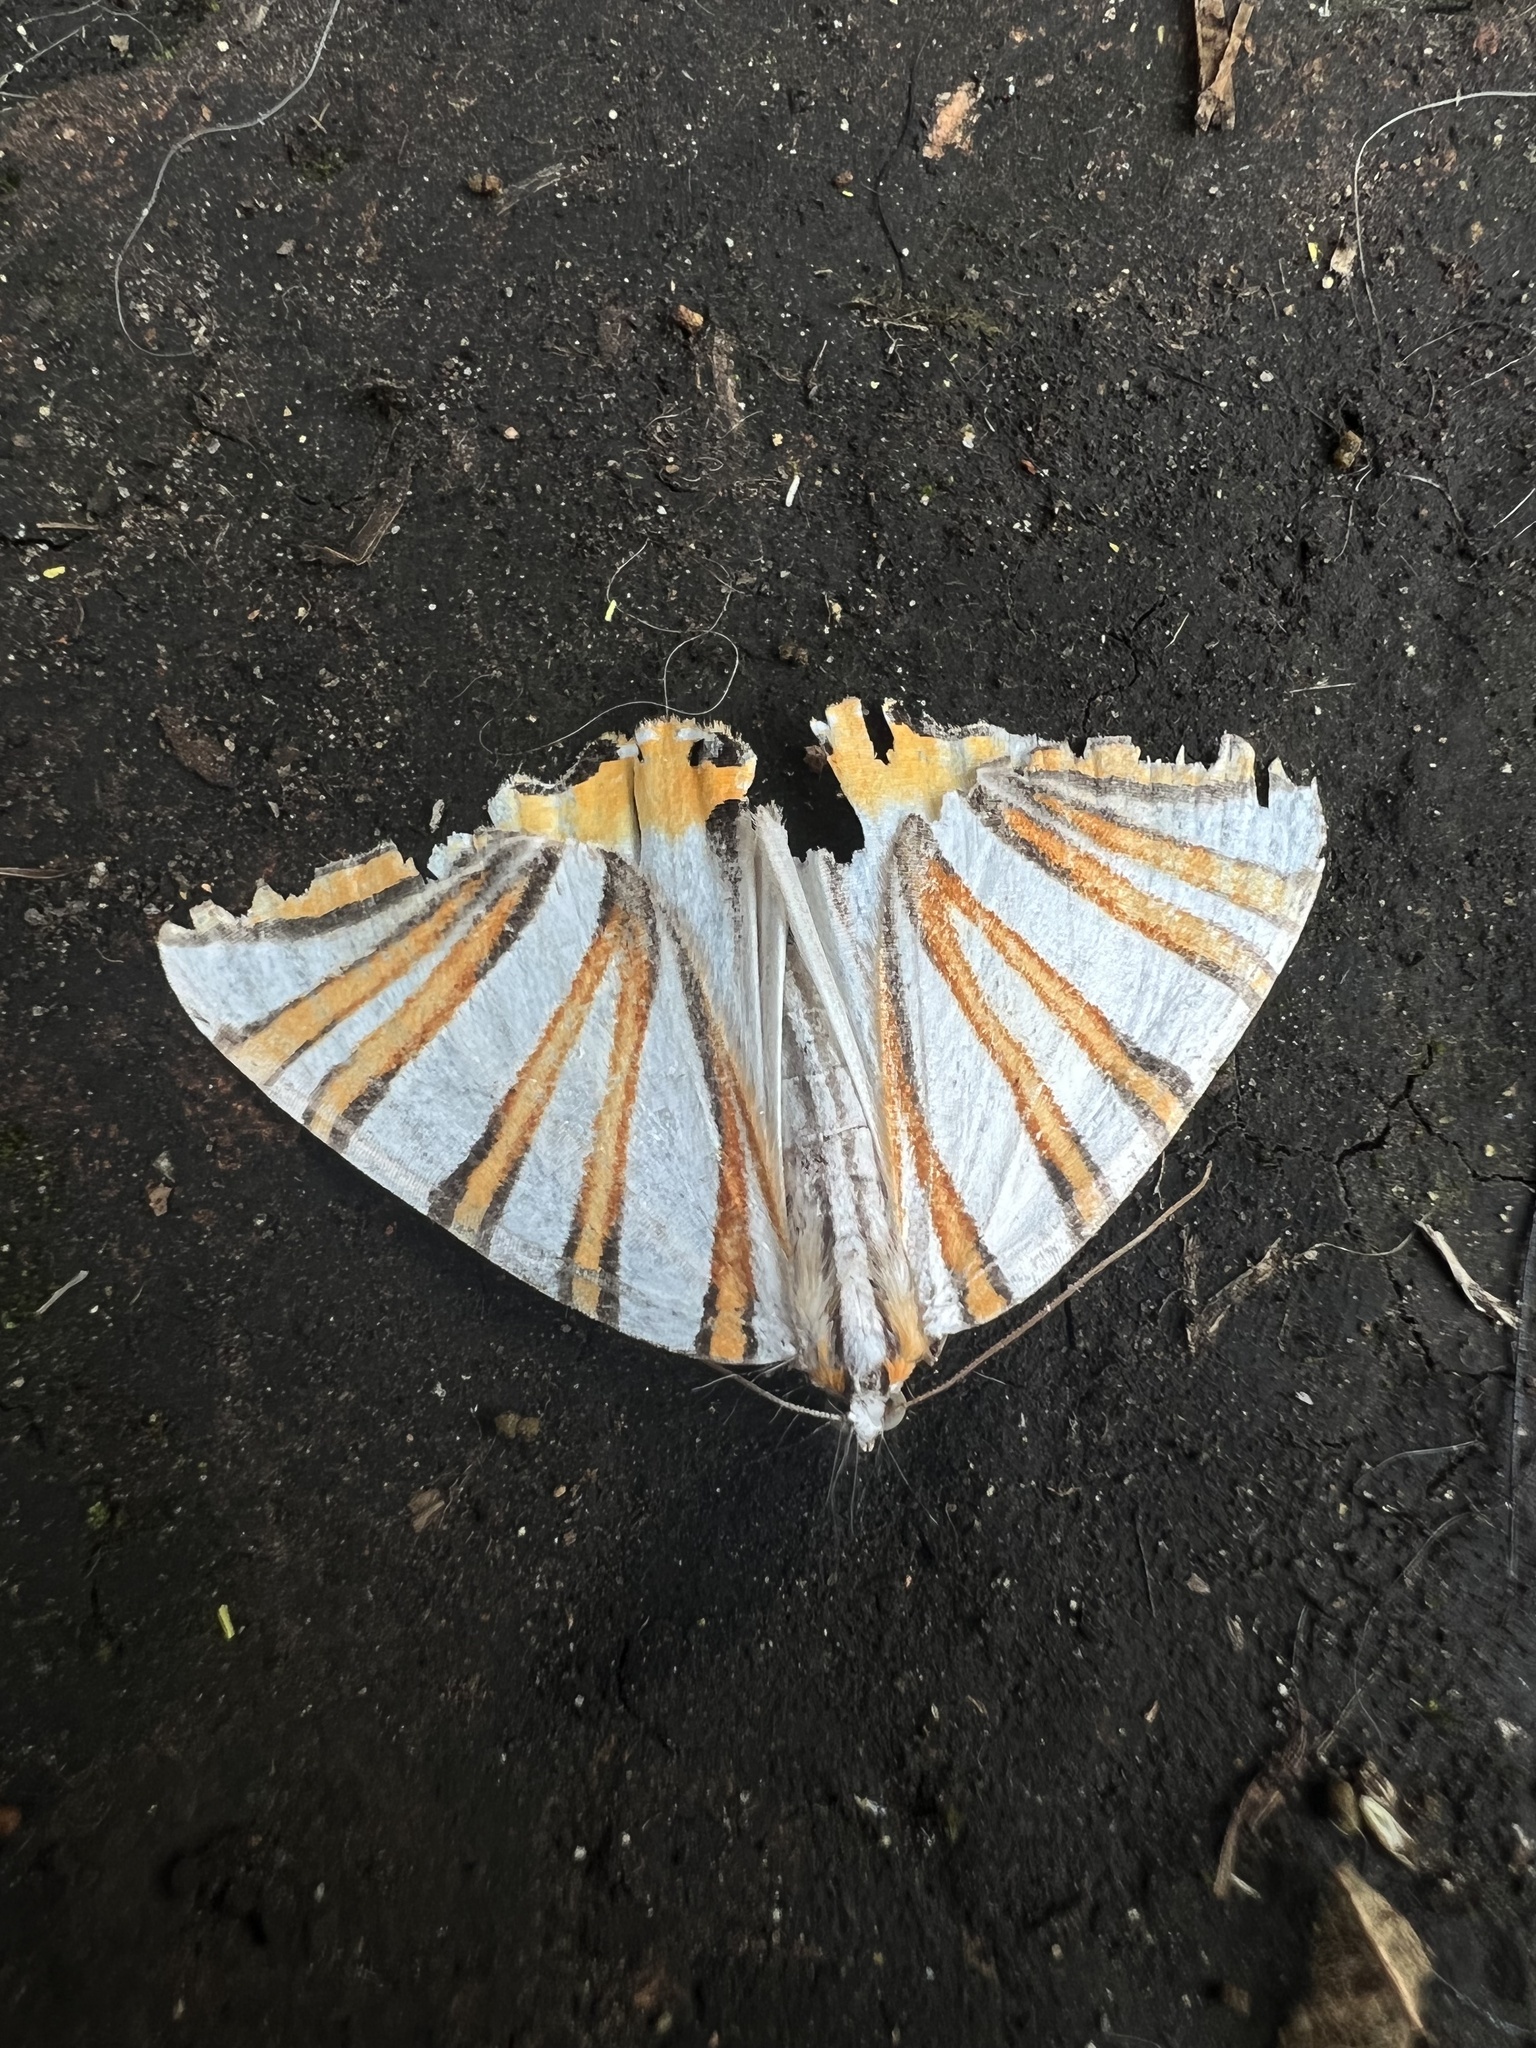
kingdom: Animalia
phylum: Arthropoda
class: Insecta
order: Lepidoptera
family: Geometridae
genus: Pityeja
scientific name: Pityeja histrionaria
